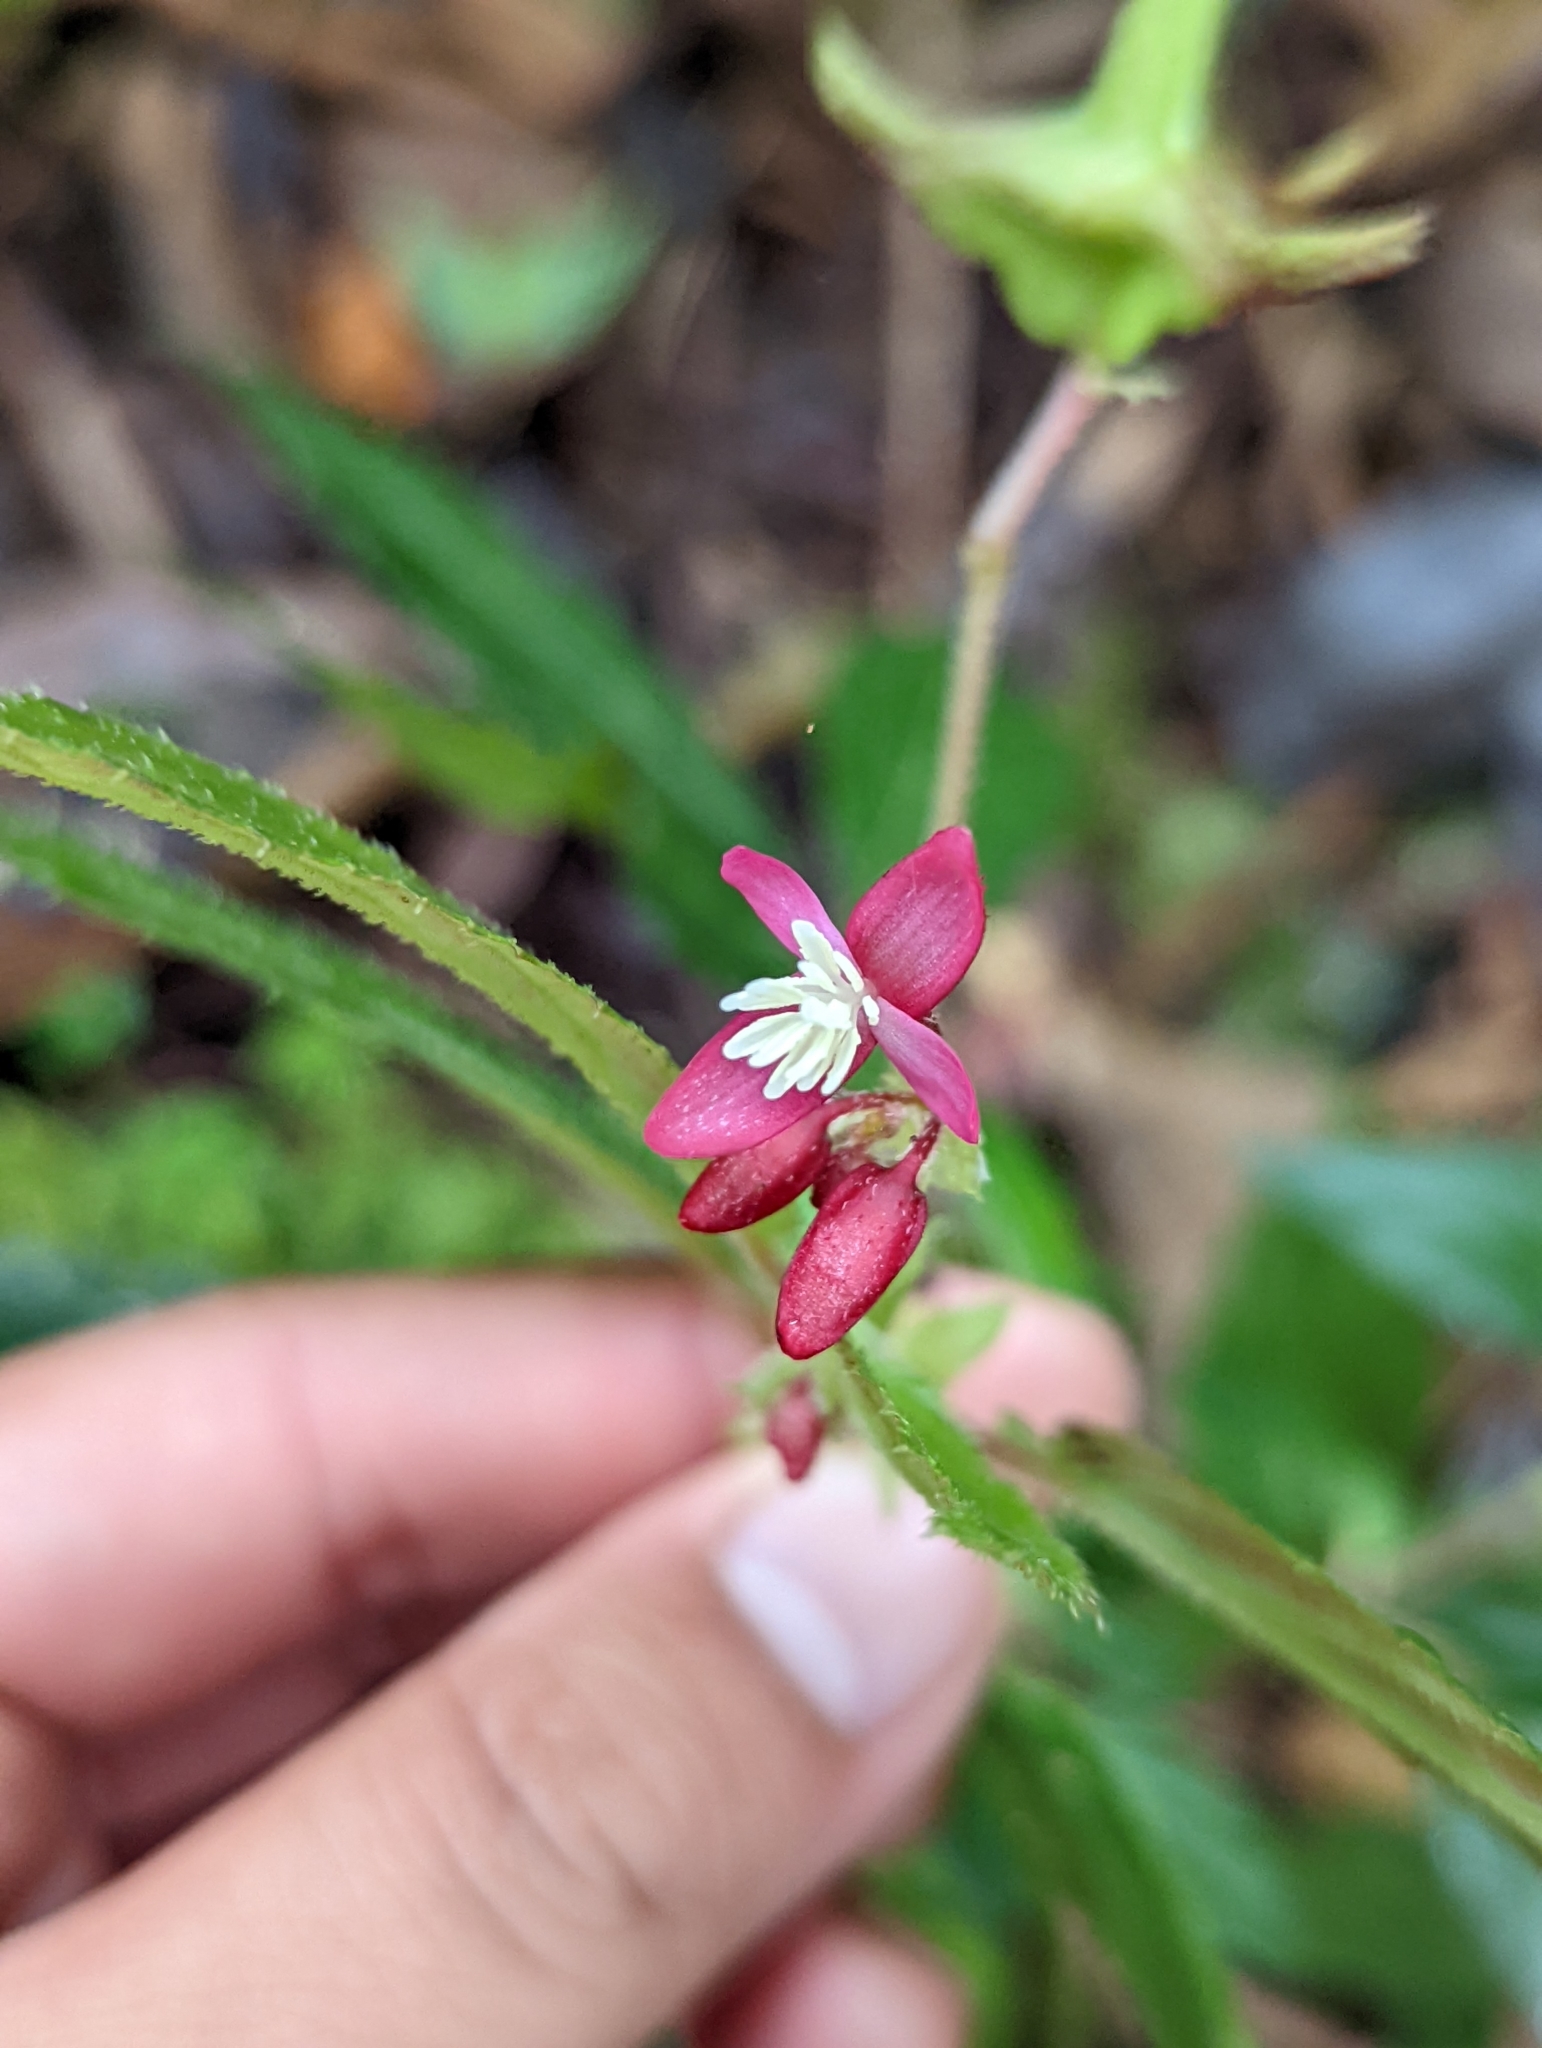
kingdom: Plantae
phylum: Tracheophyta
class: Magnoliopsida
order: Cucurbitales
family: Begoniaceae
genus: Begonia
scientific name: Begonia urticae
